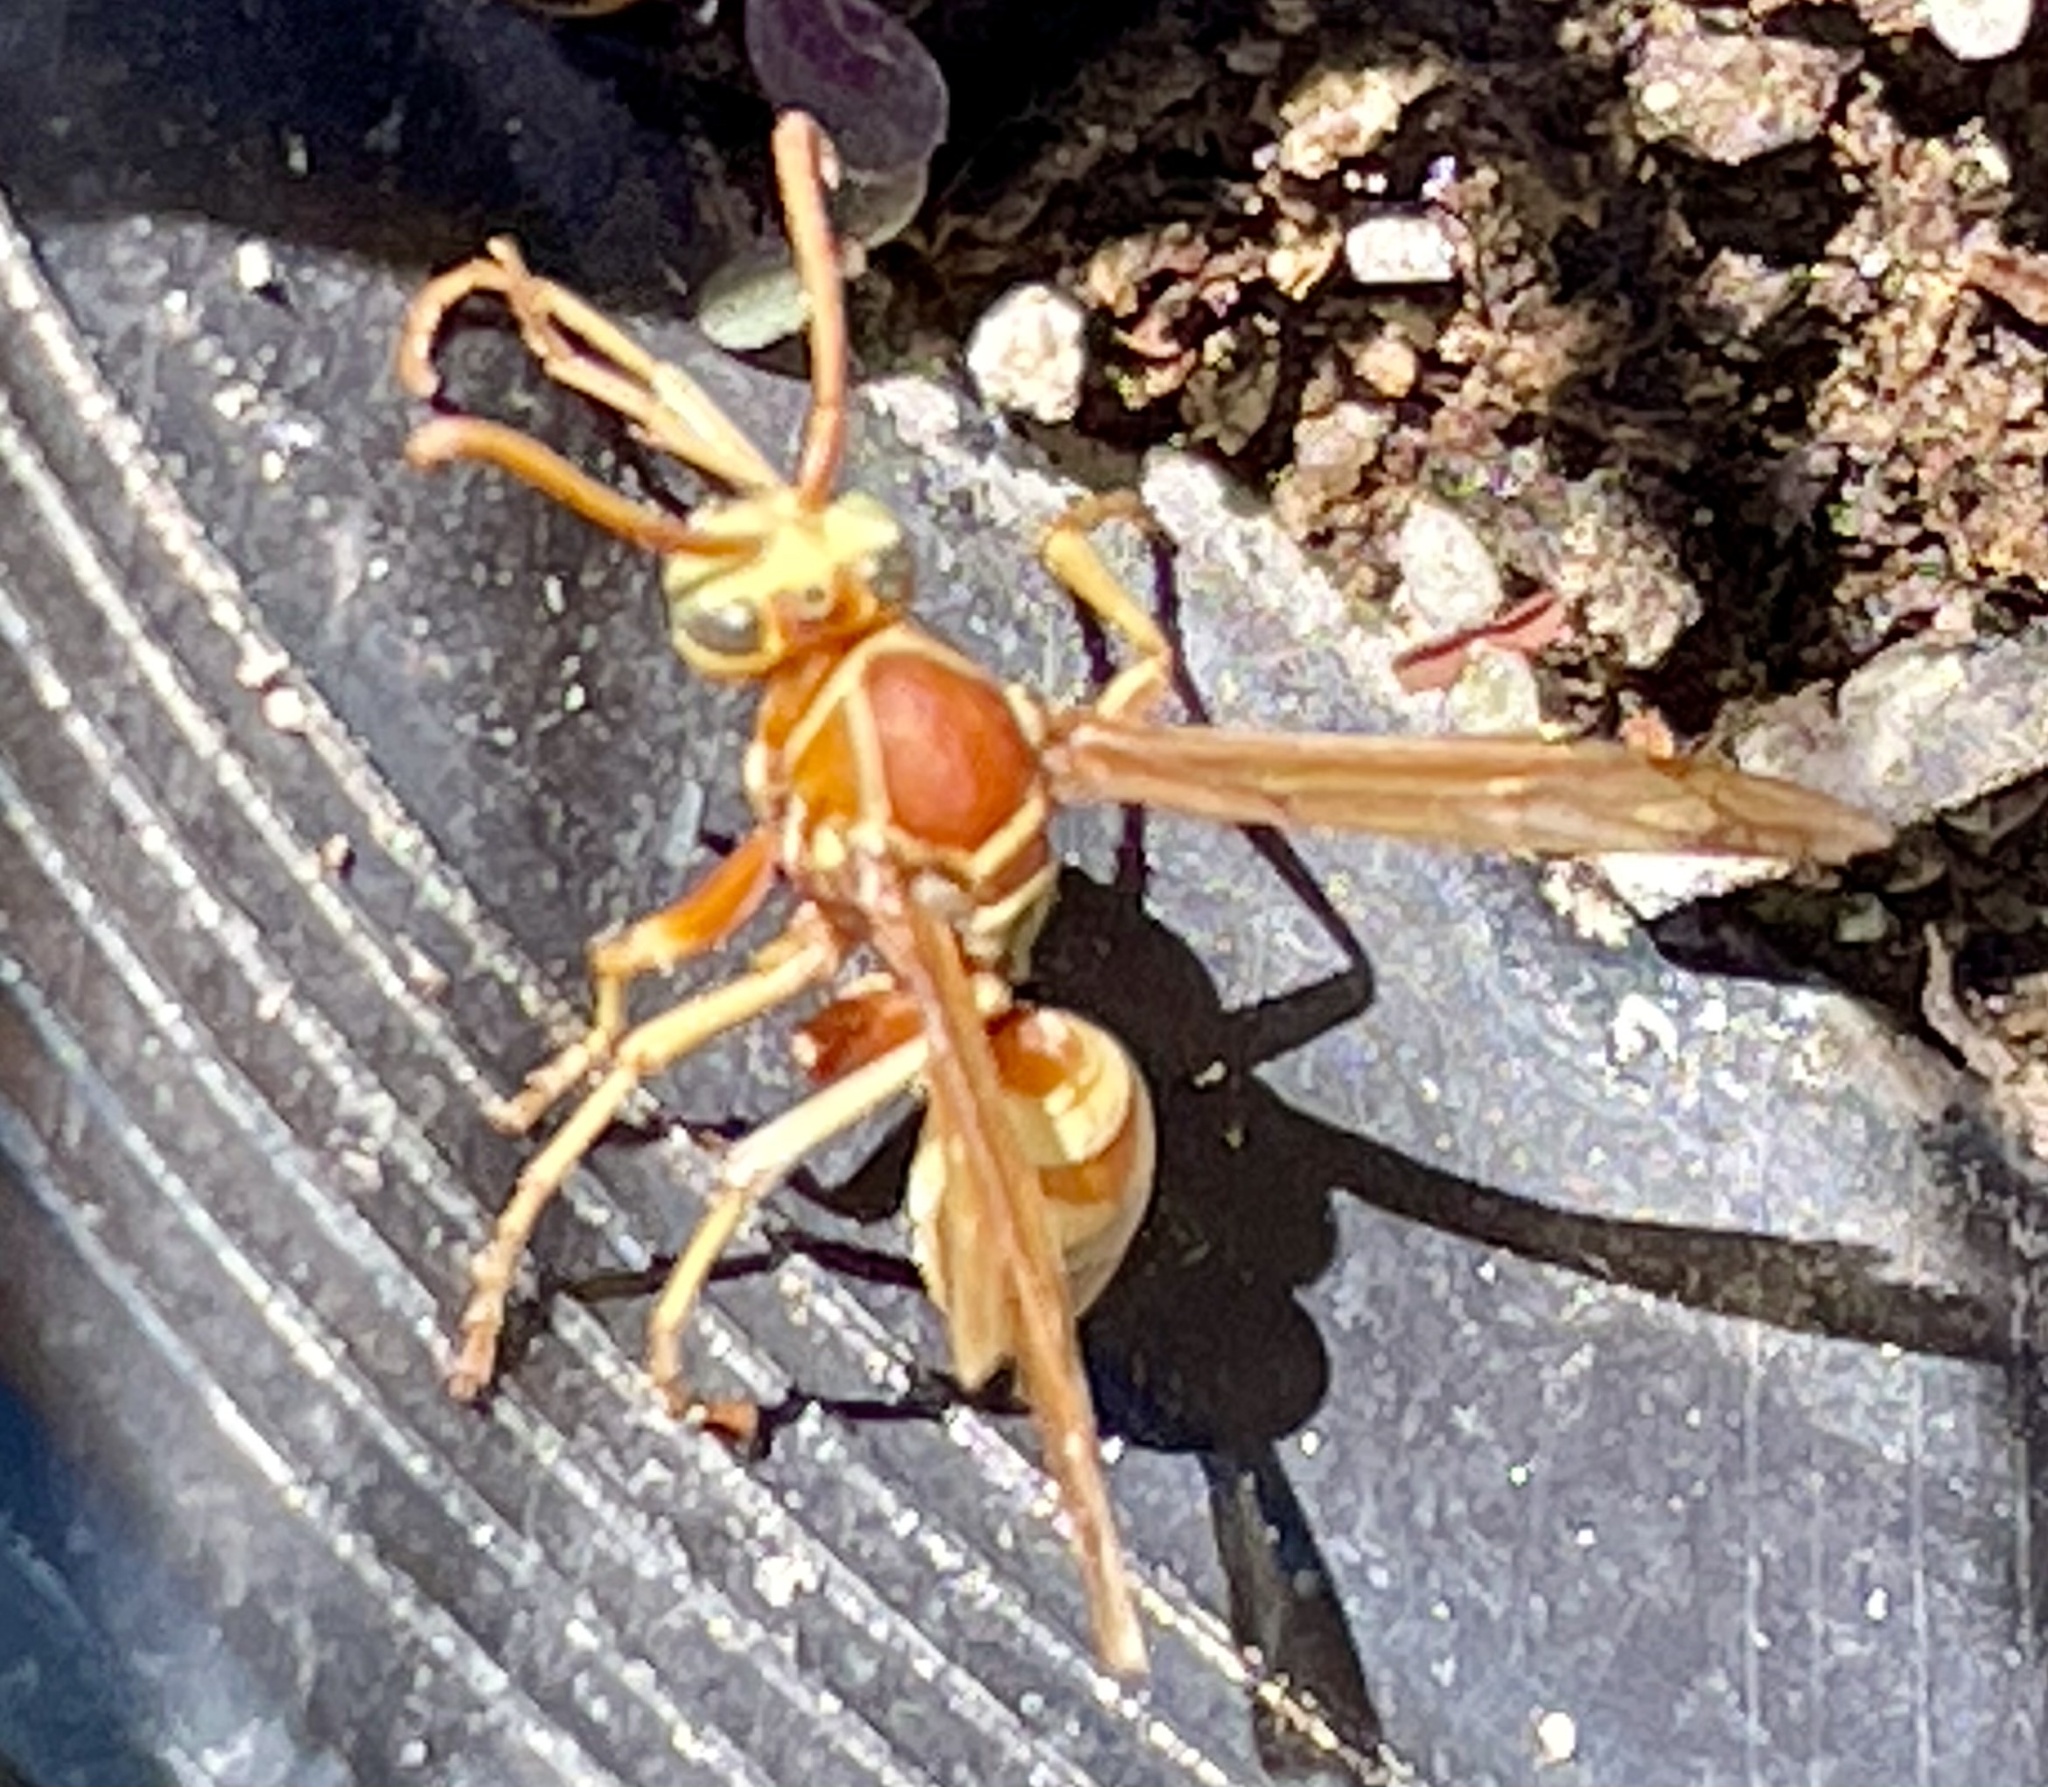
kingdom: Animalia
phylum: Arthropoda
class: Insecta
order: Hymenoptera
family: Eumenidae
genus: Polistes
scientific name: Polistes aurifer
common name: Paper wasp
